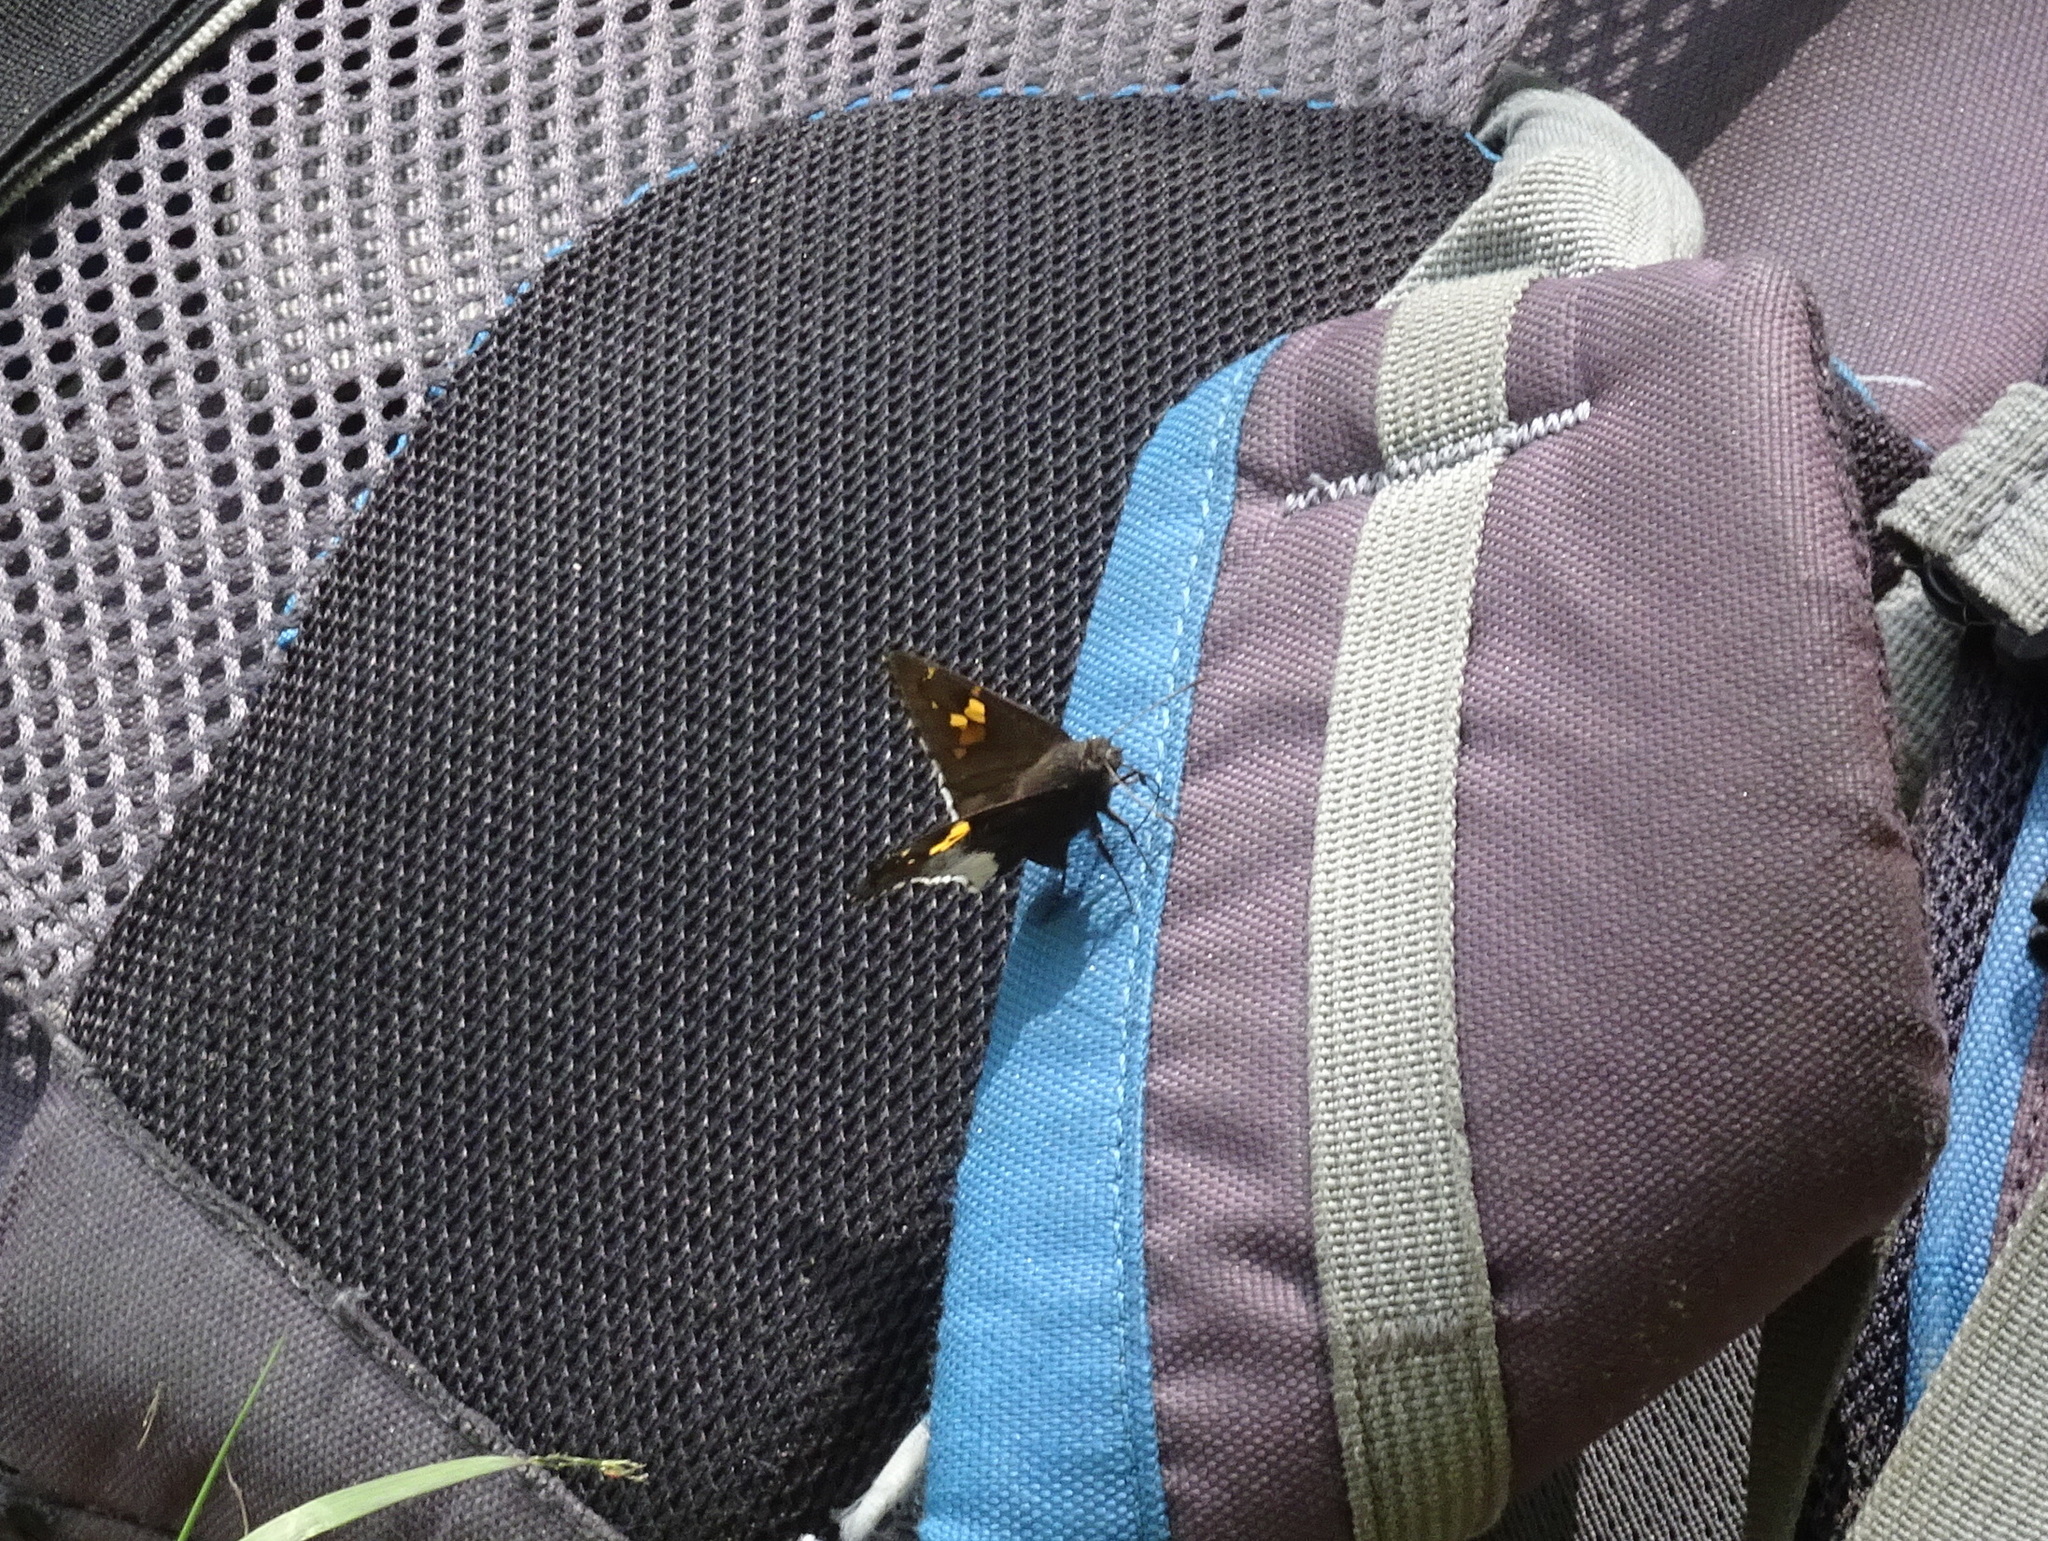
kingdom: Animalia
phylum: Arthropoda
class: Insecta
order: Lepidoptera
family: Hesperiidae
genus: Thorybes
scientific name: Thorybes lyciades
